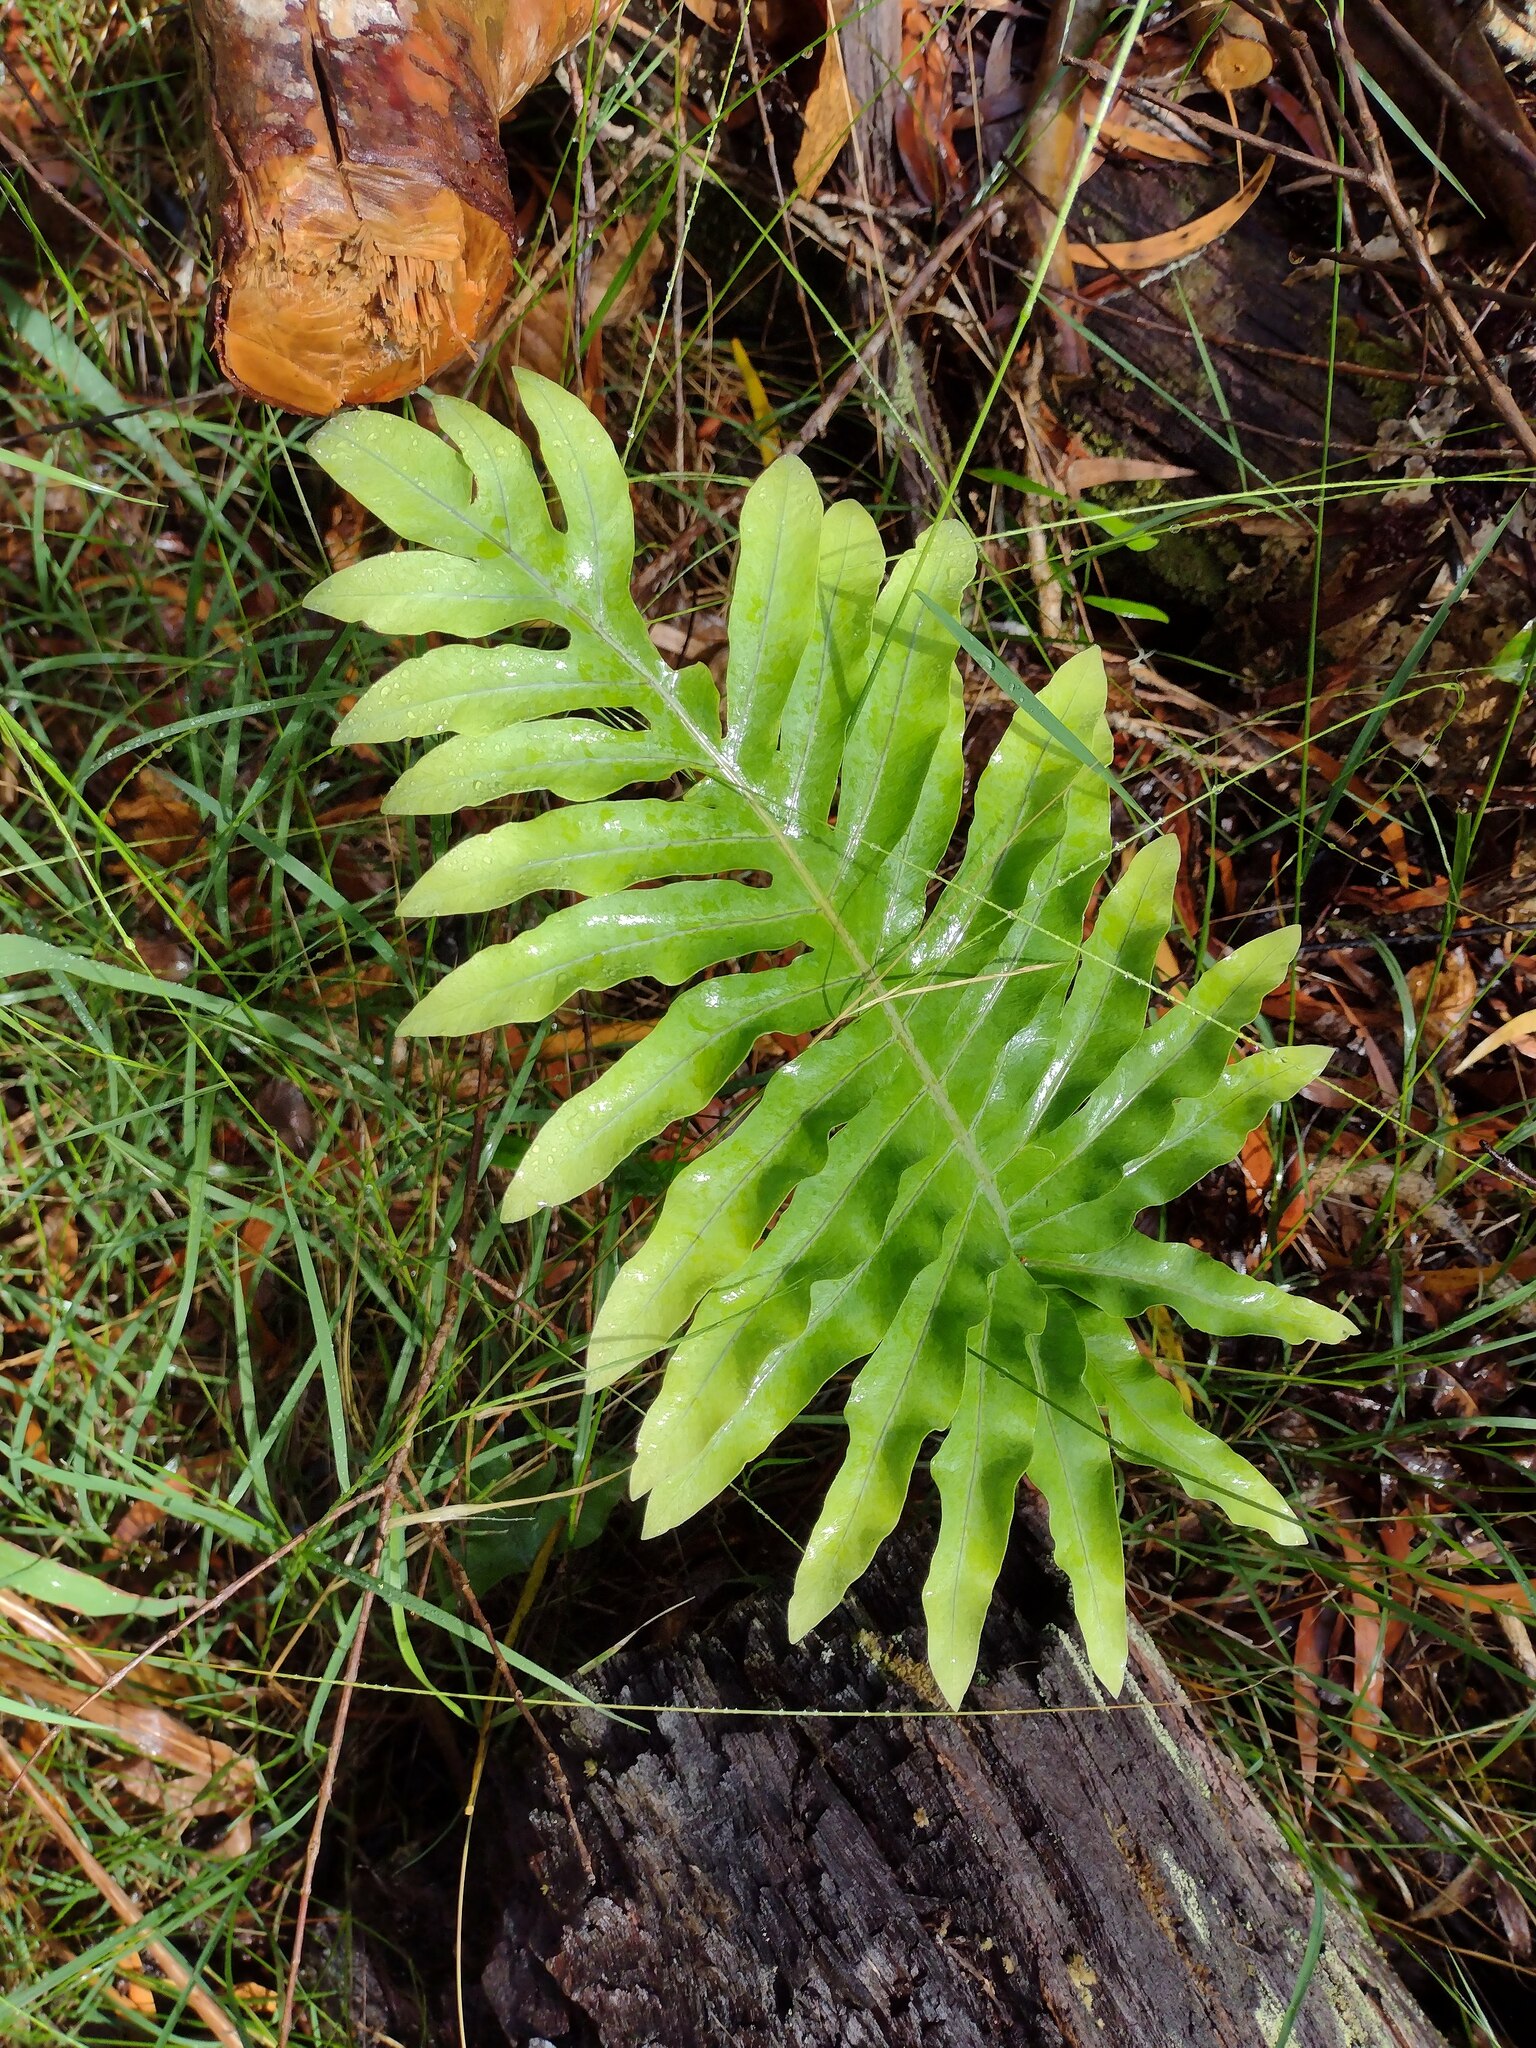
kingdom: Plantae
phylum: Tracheophyta
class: Polypodiopsida
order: Polypodiales
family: Polypodiaceae
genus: Phlebodium
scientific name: Phlebodium aureum
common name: Gold-foot fern
